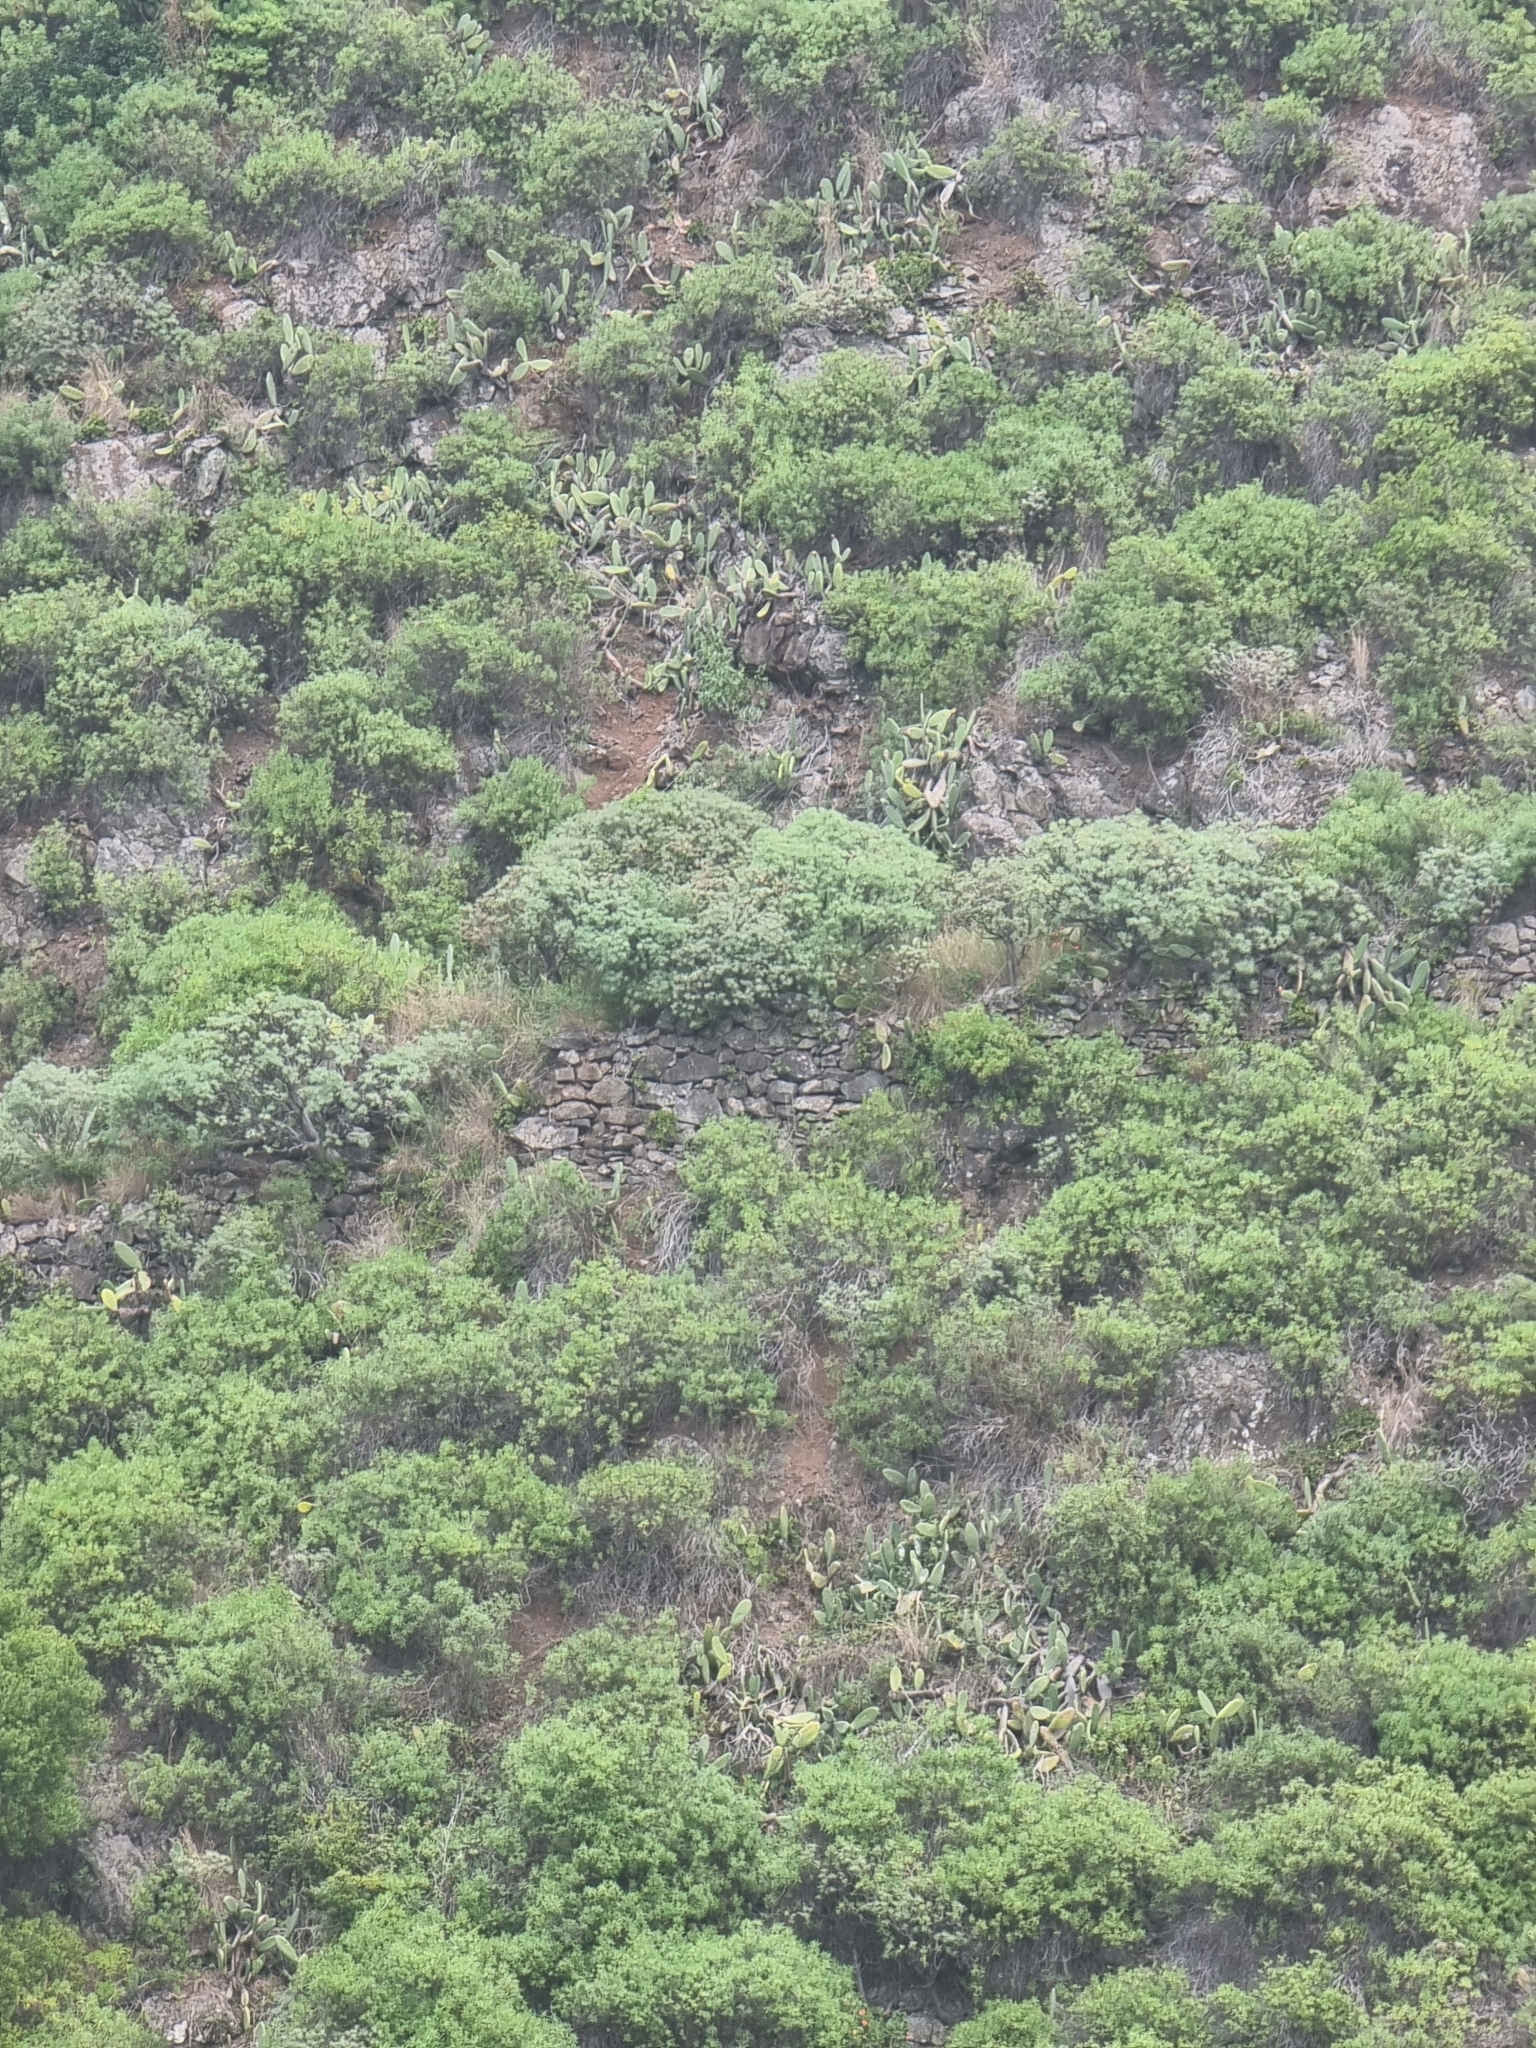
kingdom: Plantae
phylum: Tracheophyta
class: Magnoliopsida
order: Malpighiales
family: Euphorbiaceae
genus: Euphorbia
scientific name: Euphorbia piscatoria
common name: Fish-stunning spurge
